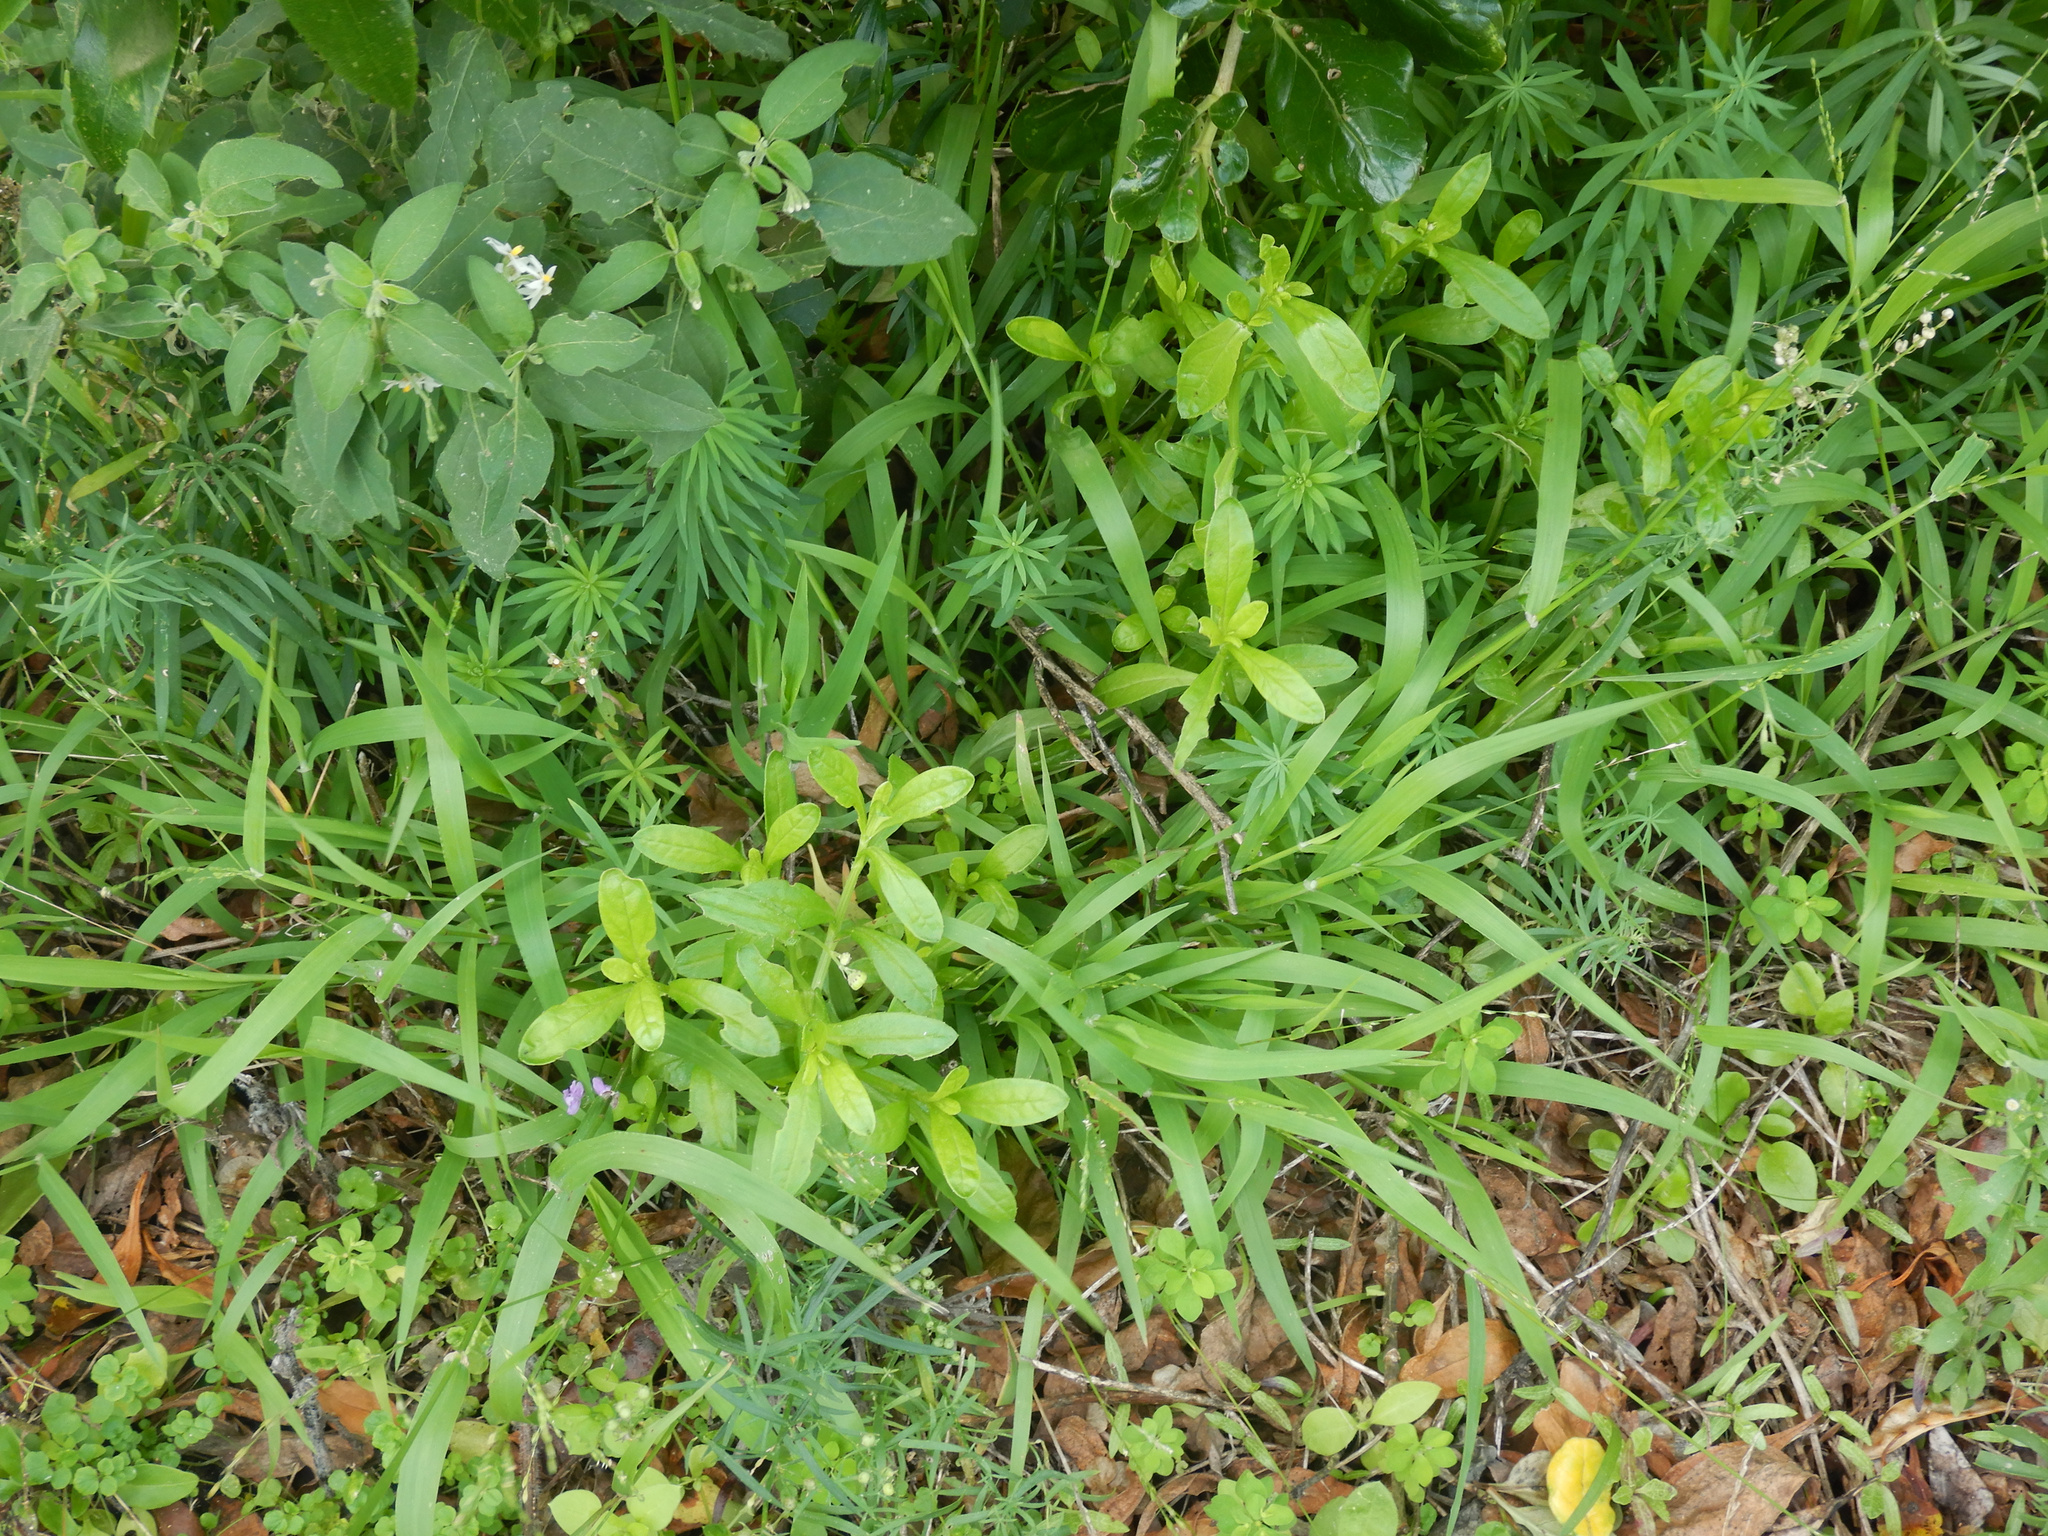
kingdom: Plantae
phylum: Tracheophyta
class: Magnoliopsida
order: Asterales
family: Asteraceae
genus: Senecio
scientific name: Senecio skirrhodon
